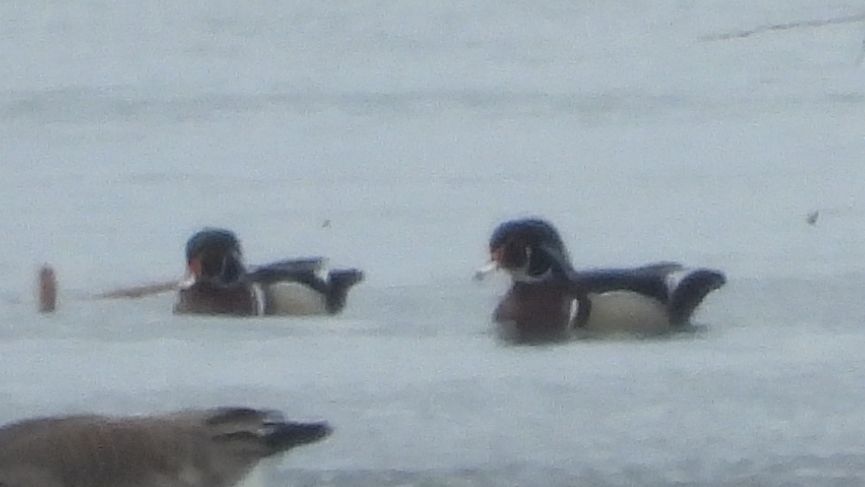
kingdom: Animalia
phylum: Chordata
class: Aves
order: Anseriformes
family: Anatidae
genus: Aix
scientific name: Aix sponsa
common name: Wood duck
